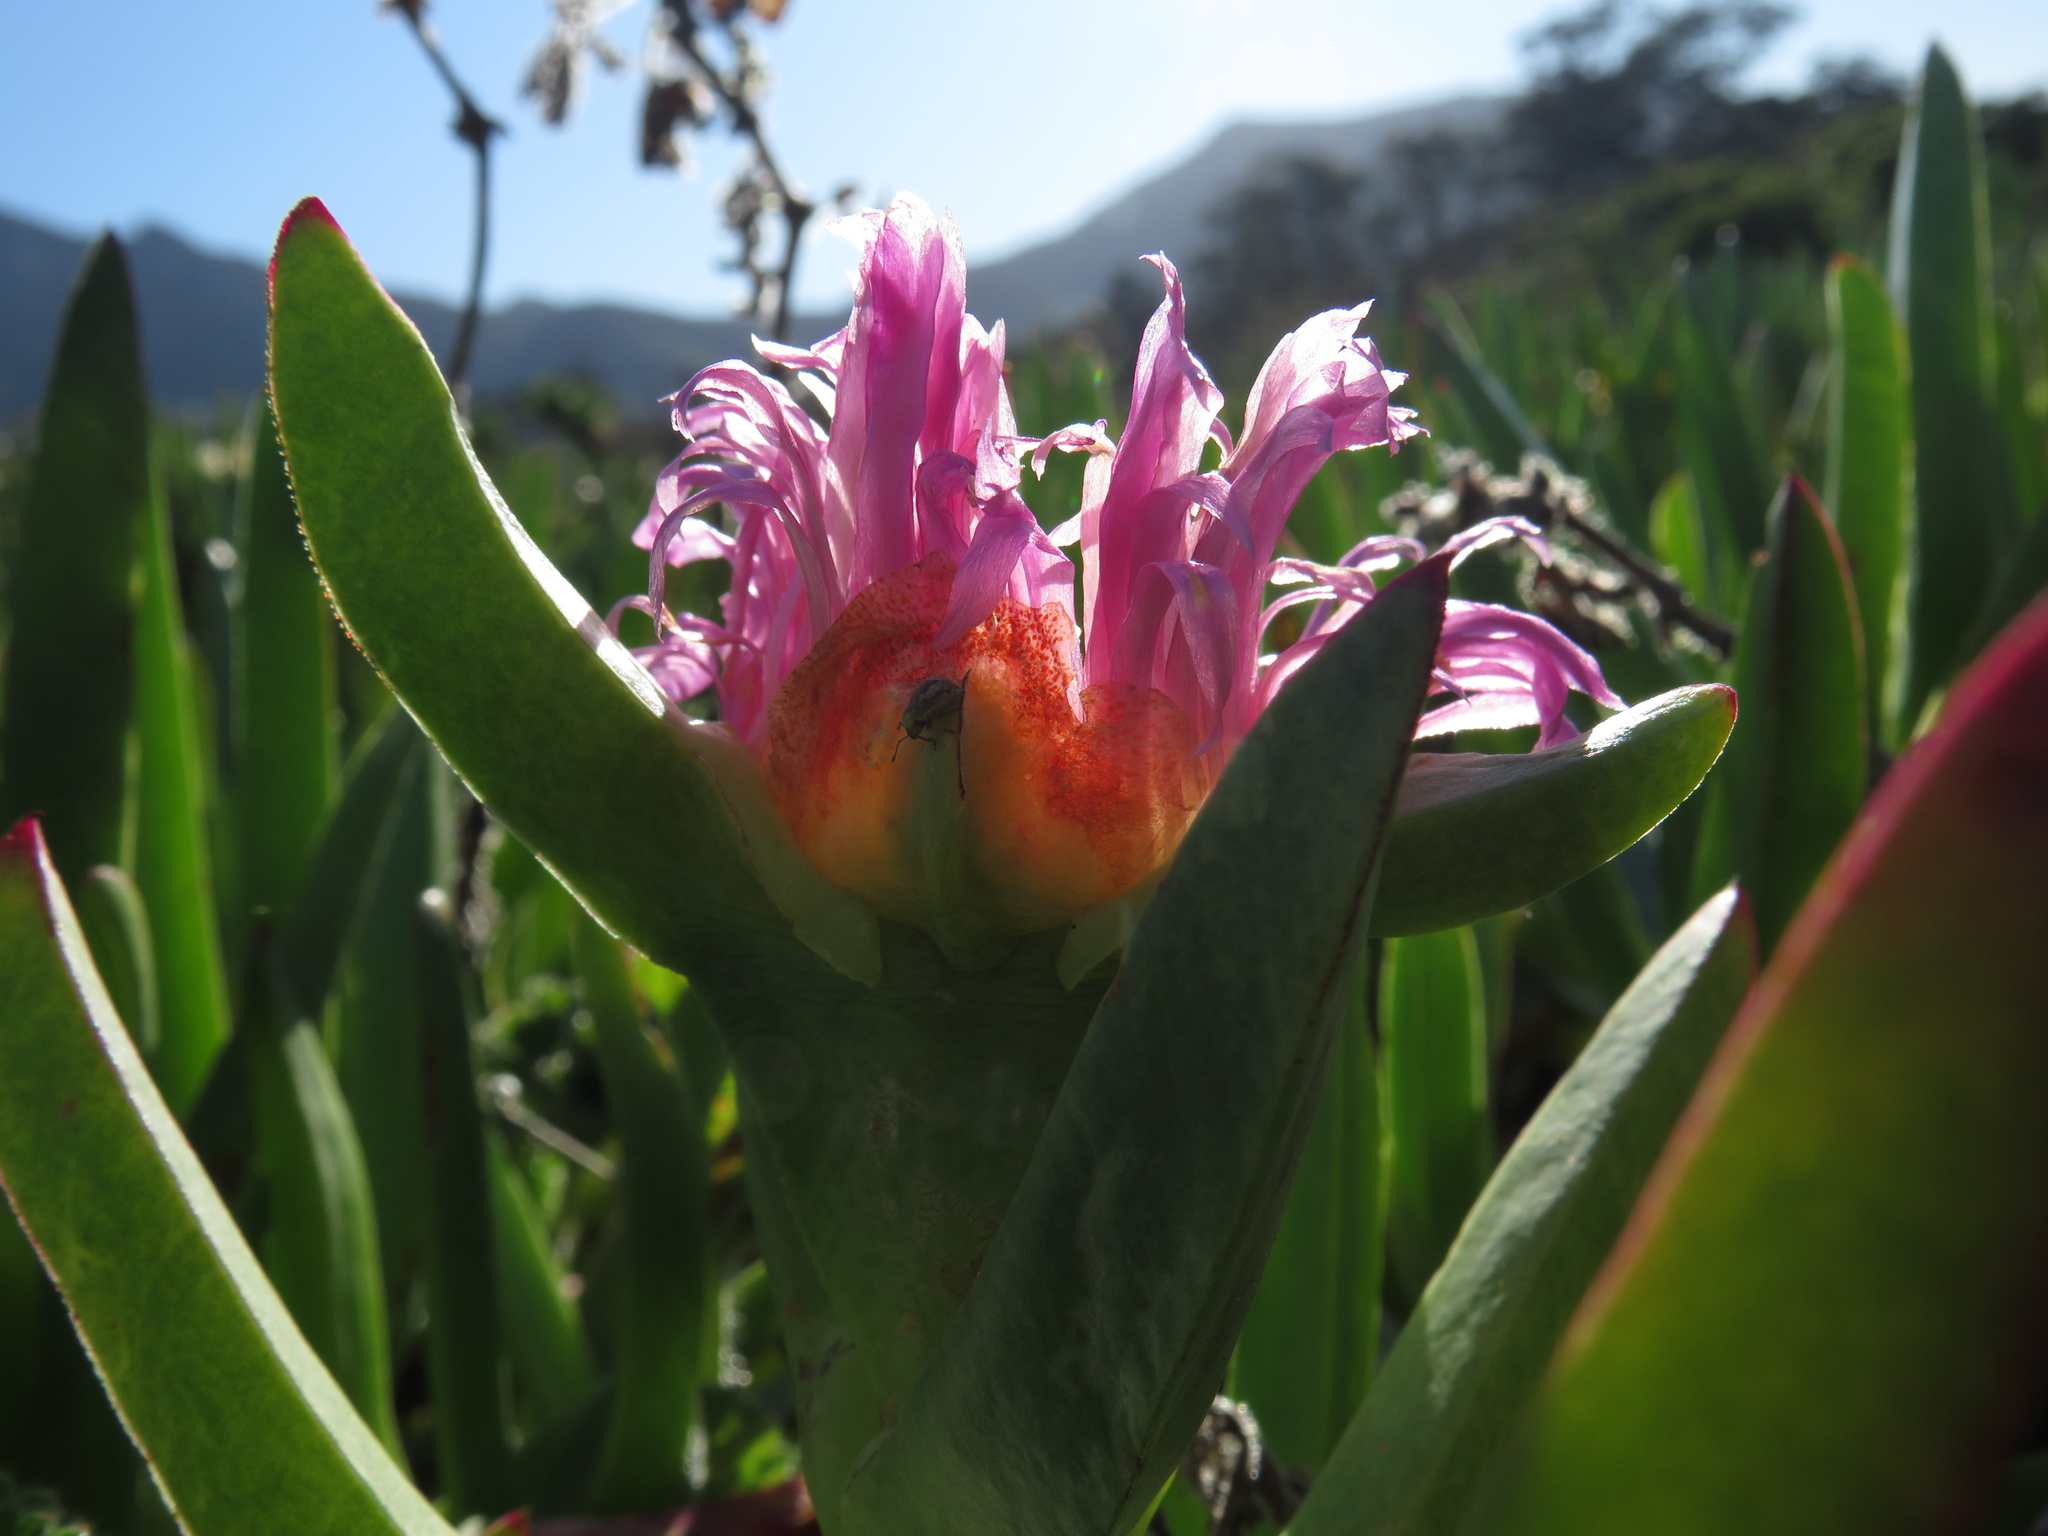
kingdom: Plantae
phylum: Tracheophyta
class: Magnoliopsida
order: Caryophyllales
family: Aizoaceae
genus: Carpobrotus
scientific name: Carpobrotus edulis
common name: Hottentot-fig
